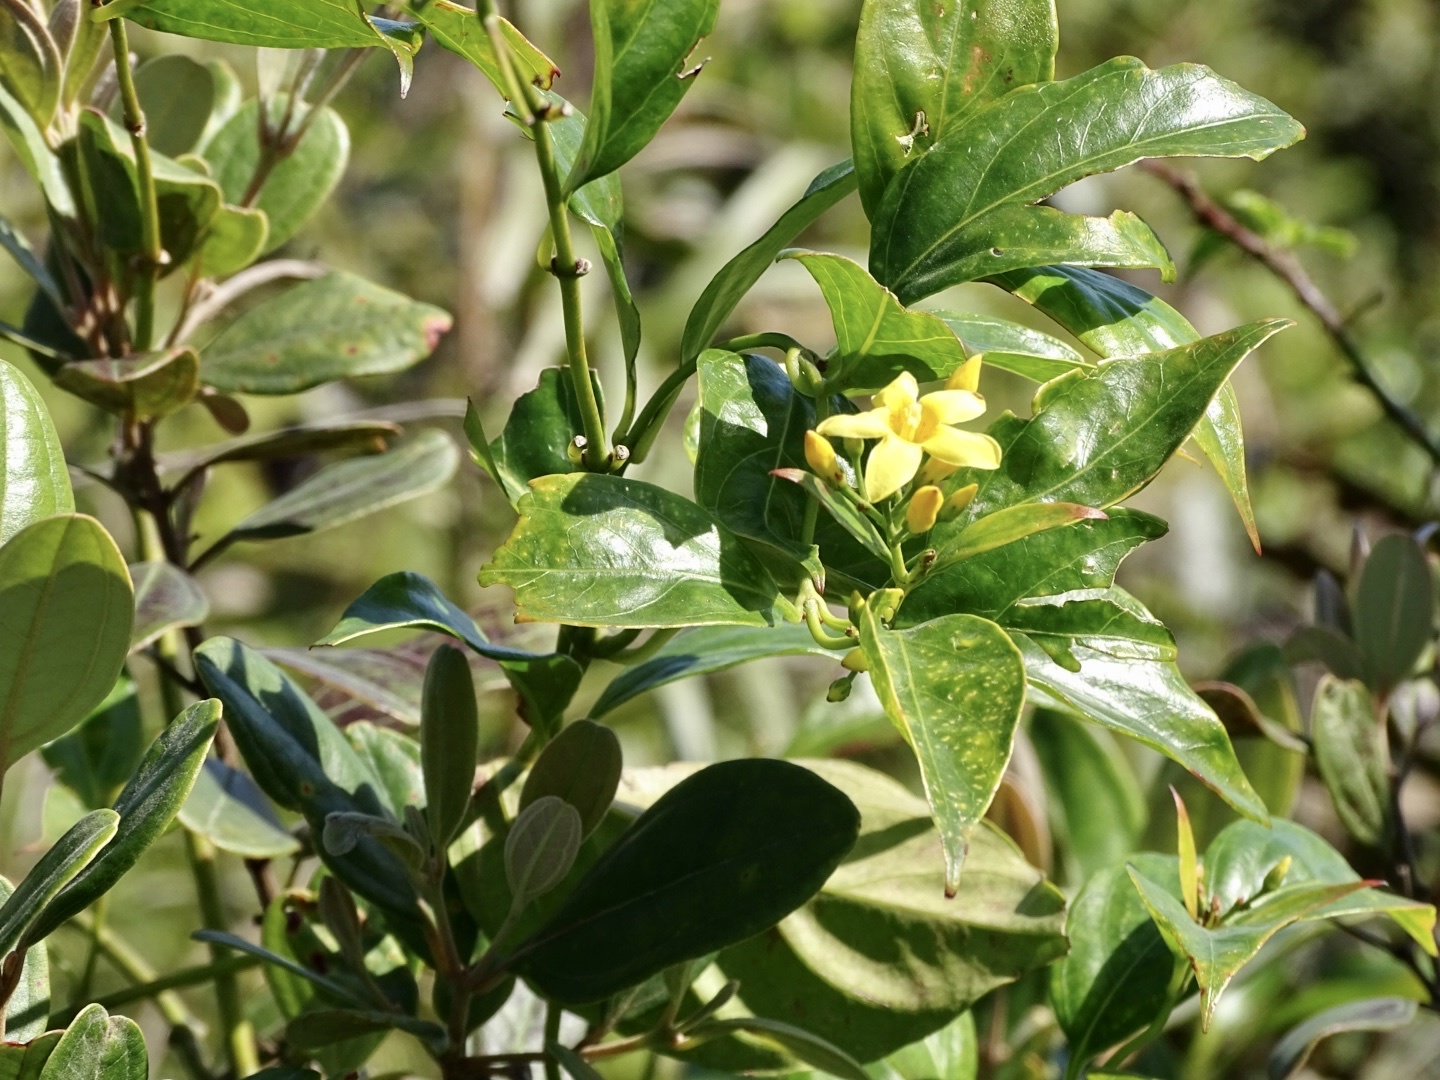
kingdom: Plantae
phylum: Tracheophyta
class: Magnoliopsida
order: Gentianales
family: Gelsemiaceae
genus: Gelsemium
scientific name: Gelsemium elegans
